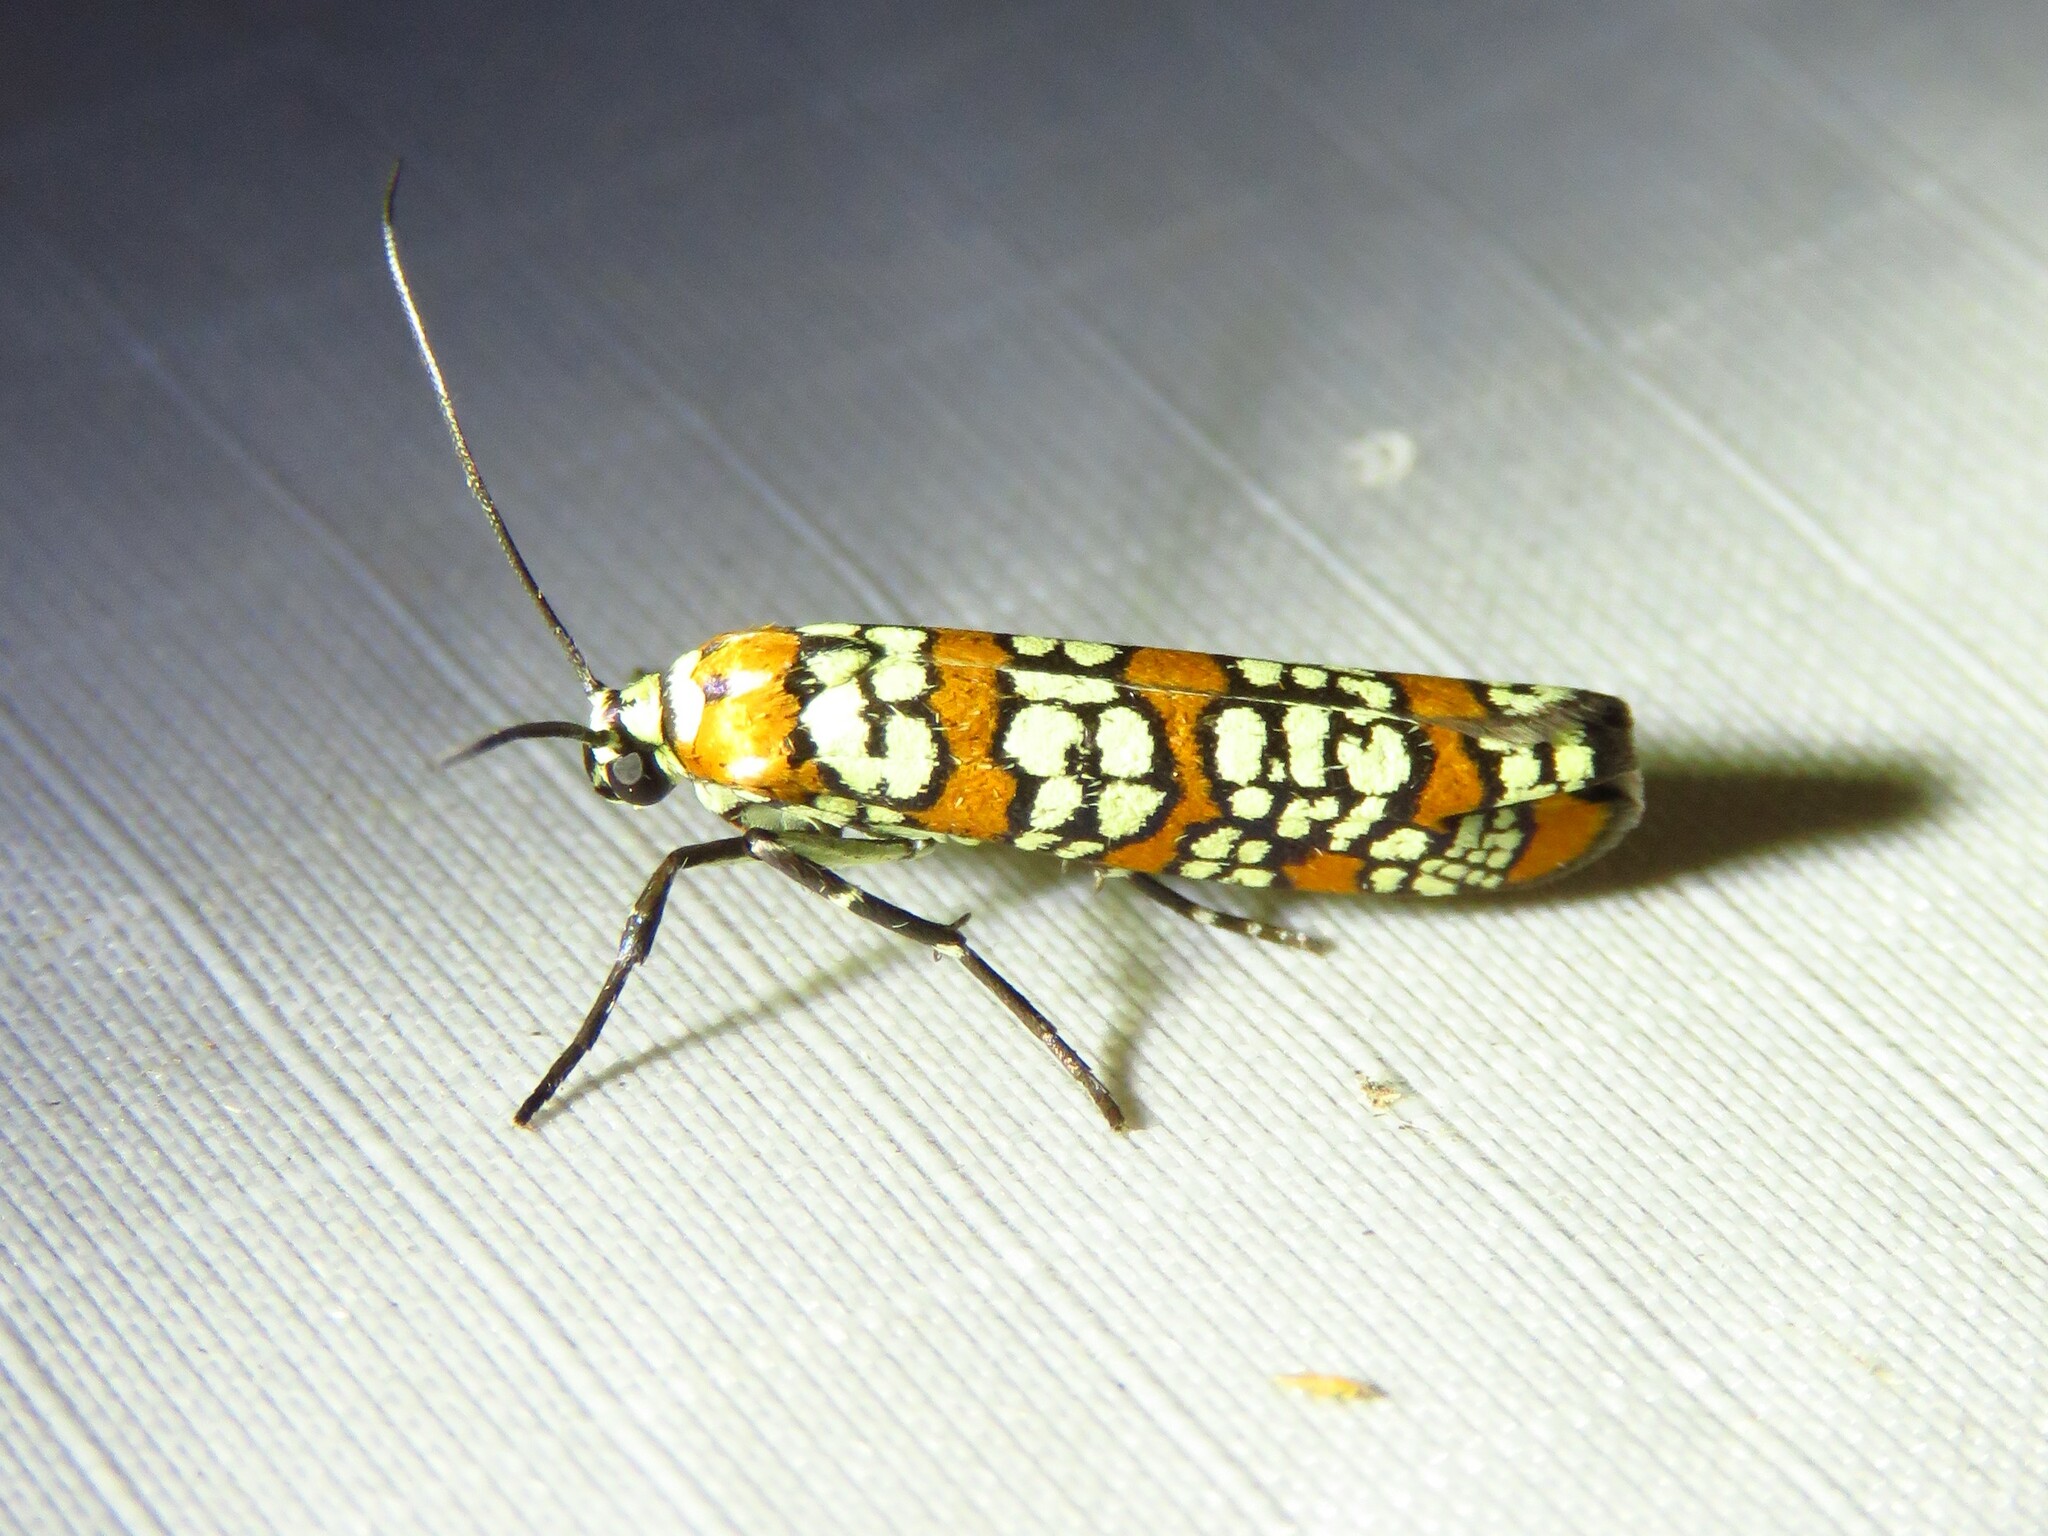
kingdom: Animalia
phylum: Arthropoda
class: Insecta
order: Lepidoptera
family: Attevidae
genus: Atteva
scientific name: Atteva punctella
